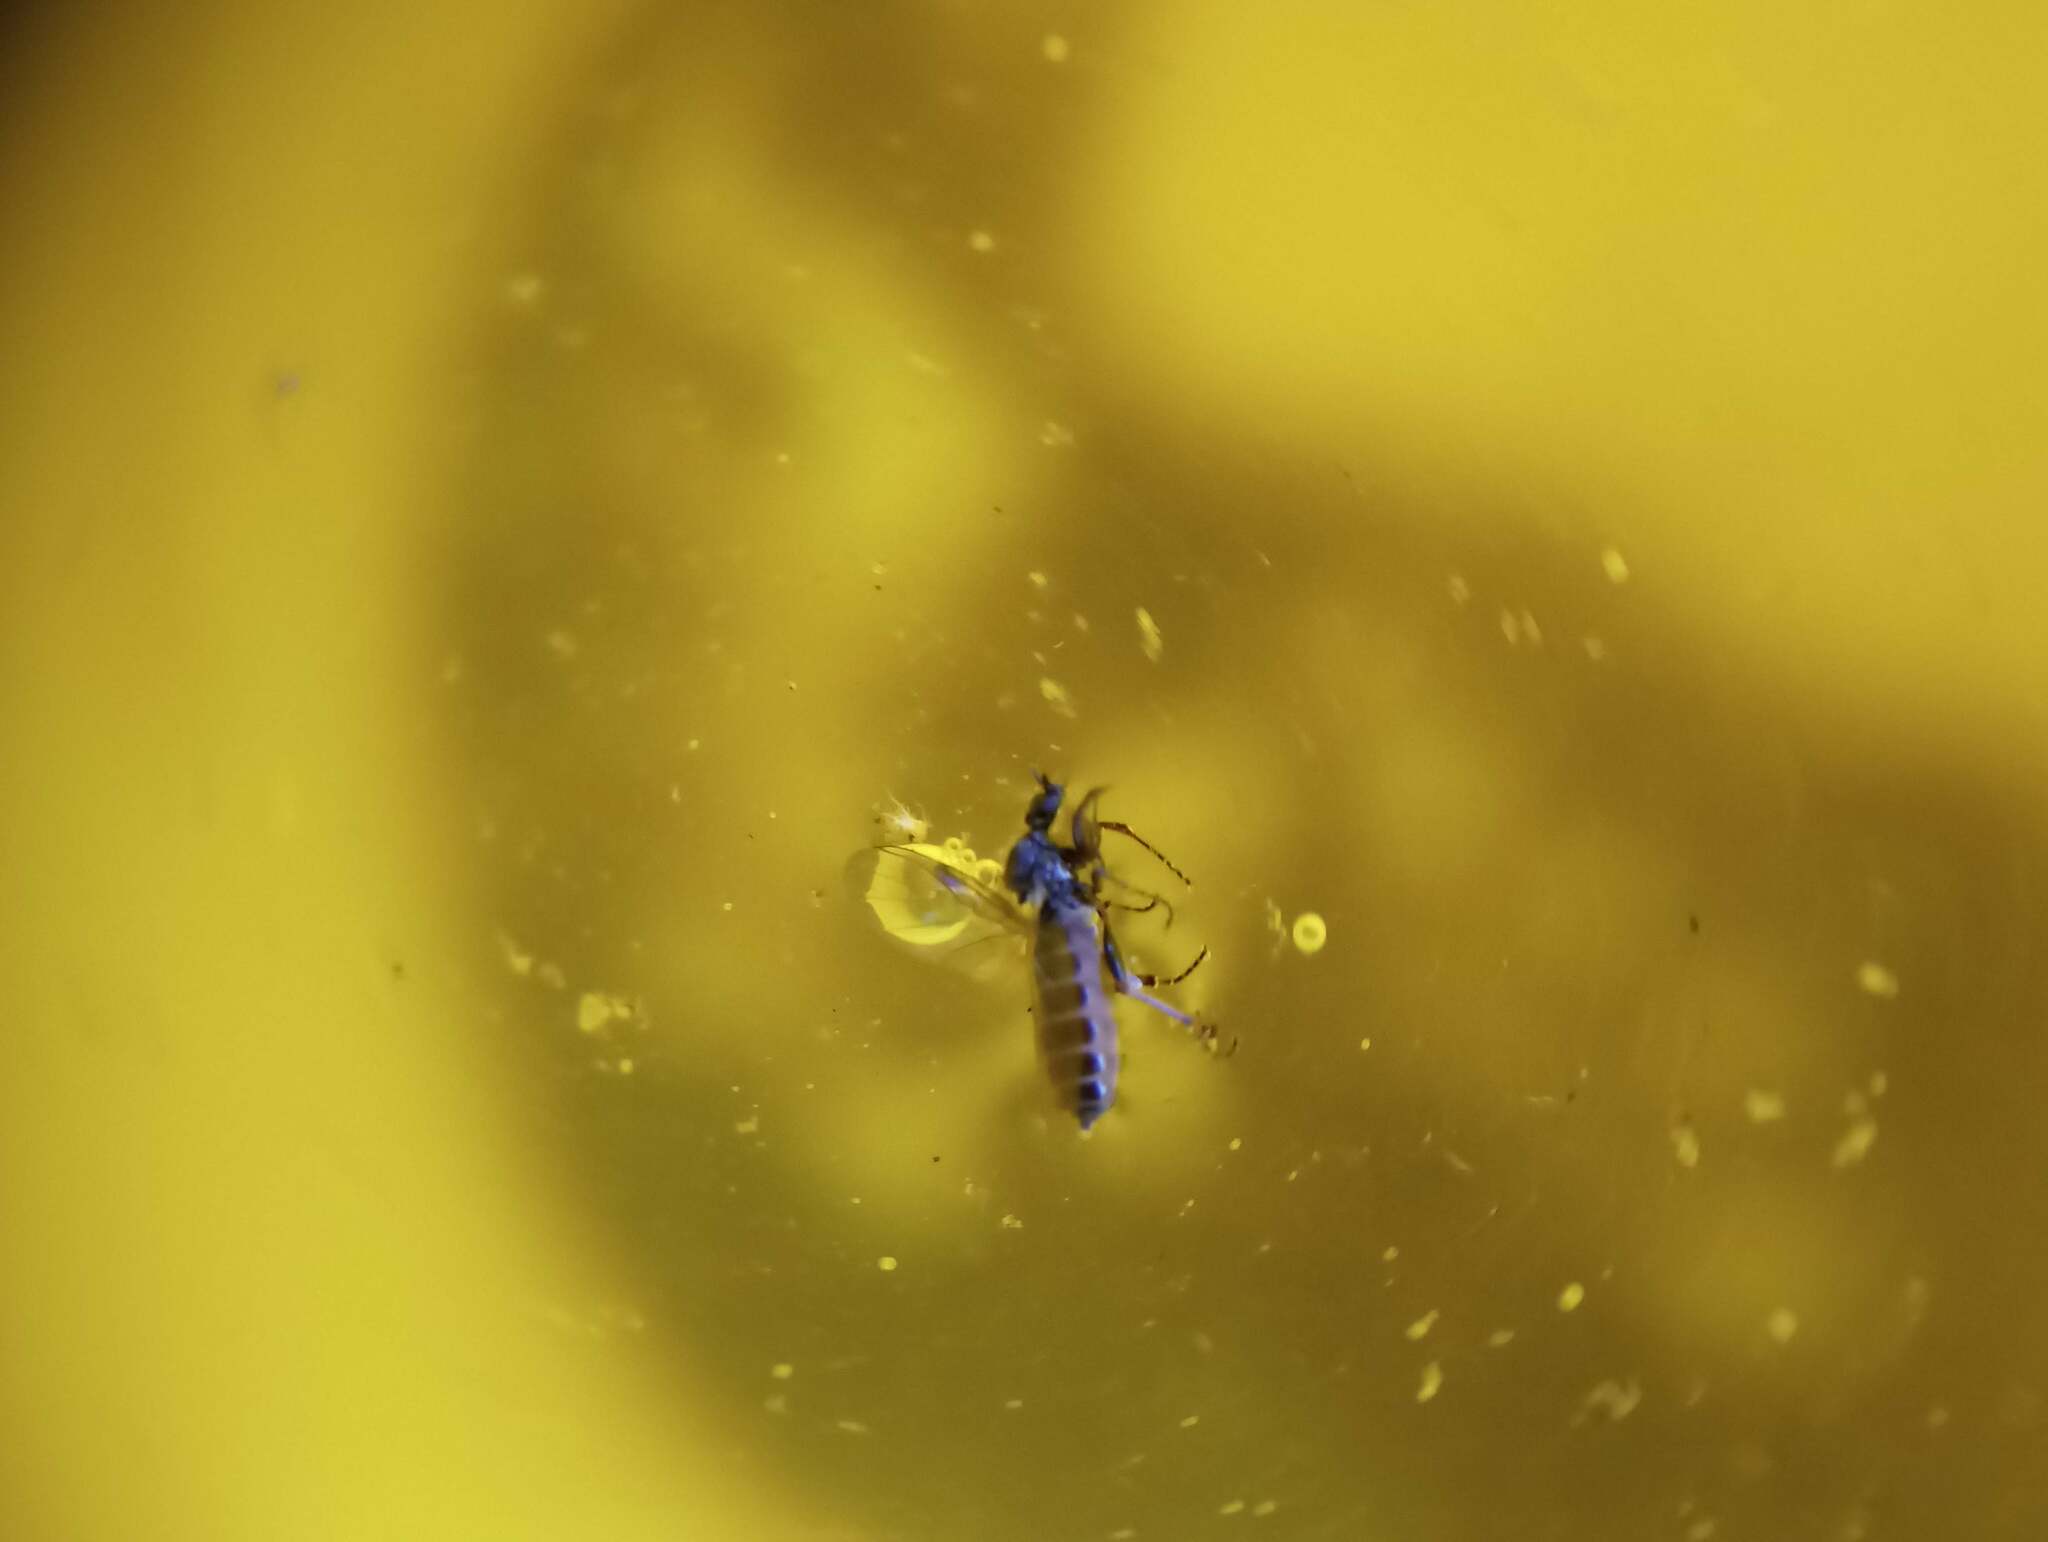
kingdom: Animalia
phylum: Arthropoda
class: Insecta
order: Diptera
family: Bibionidae
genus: Bibiodes
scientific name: Bibiodes halteralis
